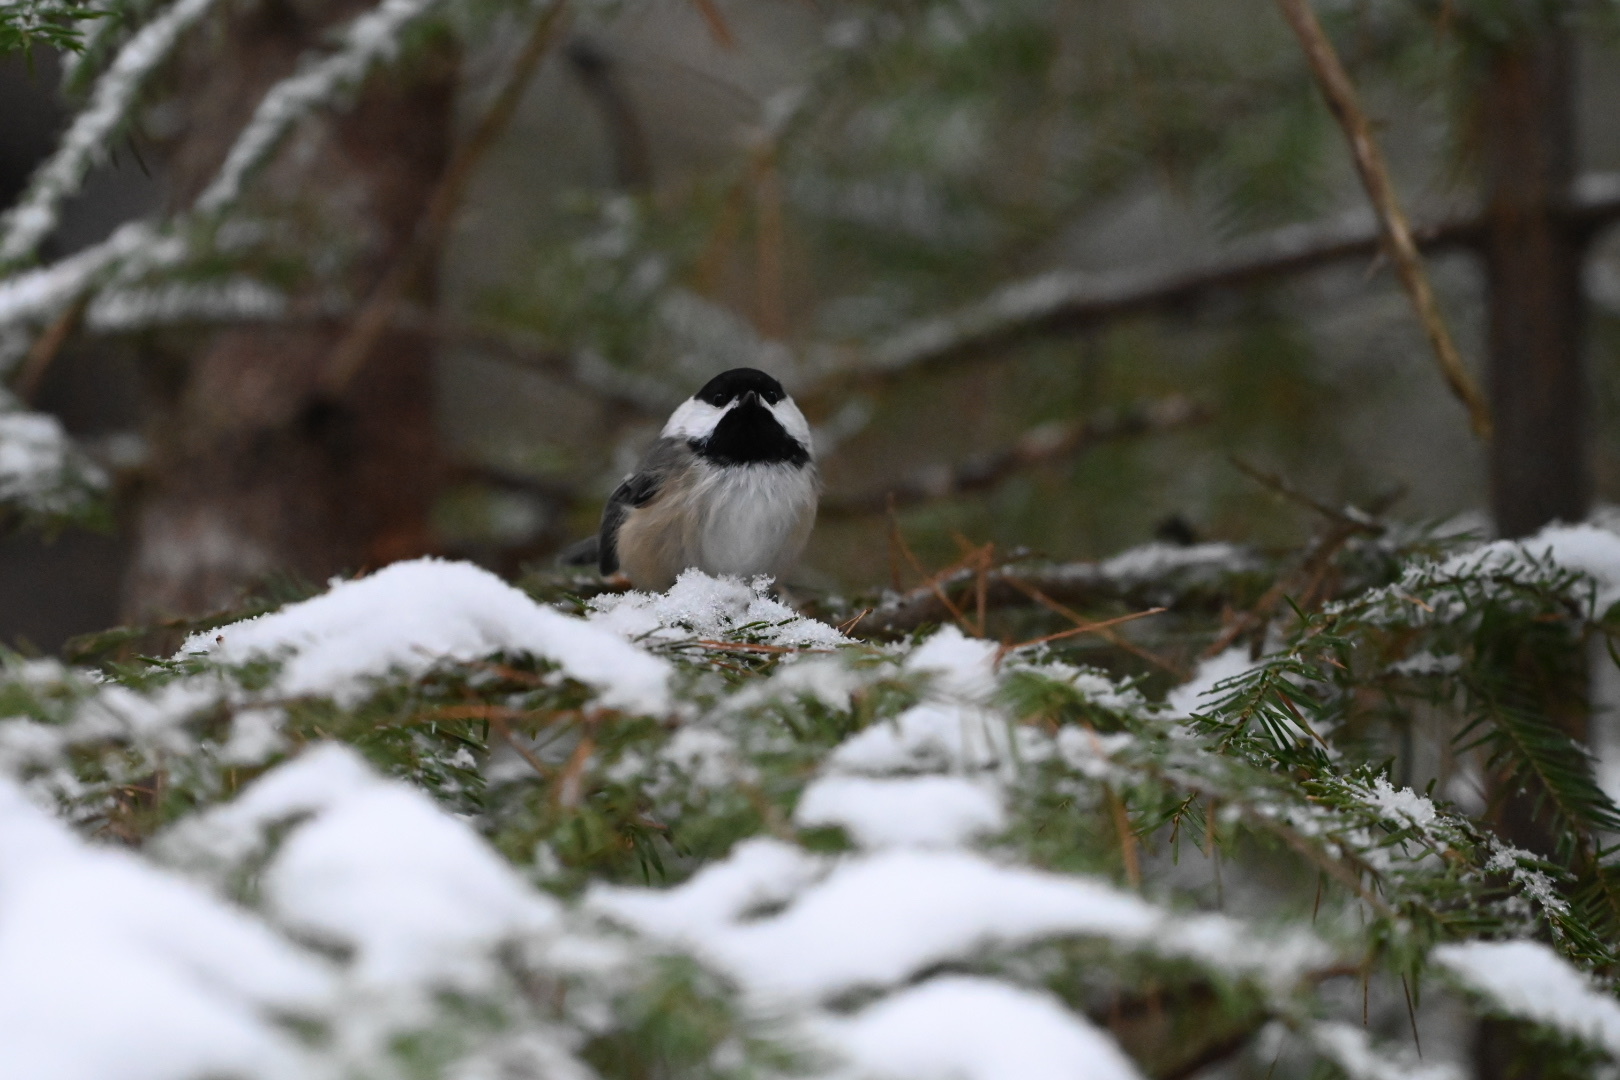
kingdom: Animalia
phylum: Chordata
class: Aves
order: Passeriformes
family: Paridae
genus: Poecile
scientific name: Poecile atricapillus
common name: Black-capped chickadee
